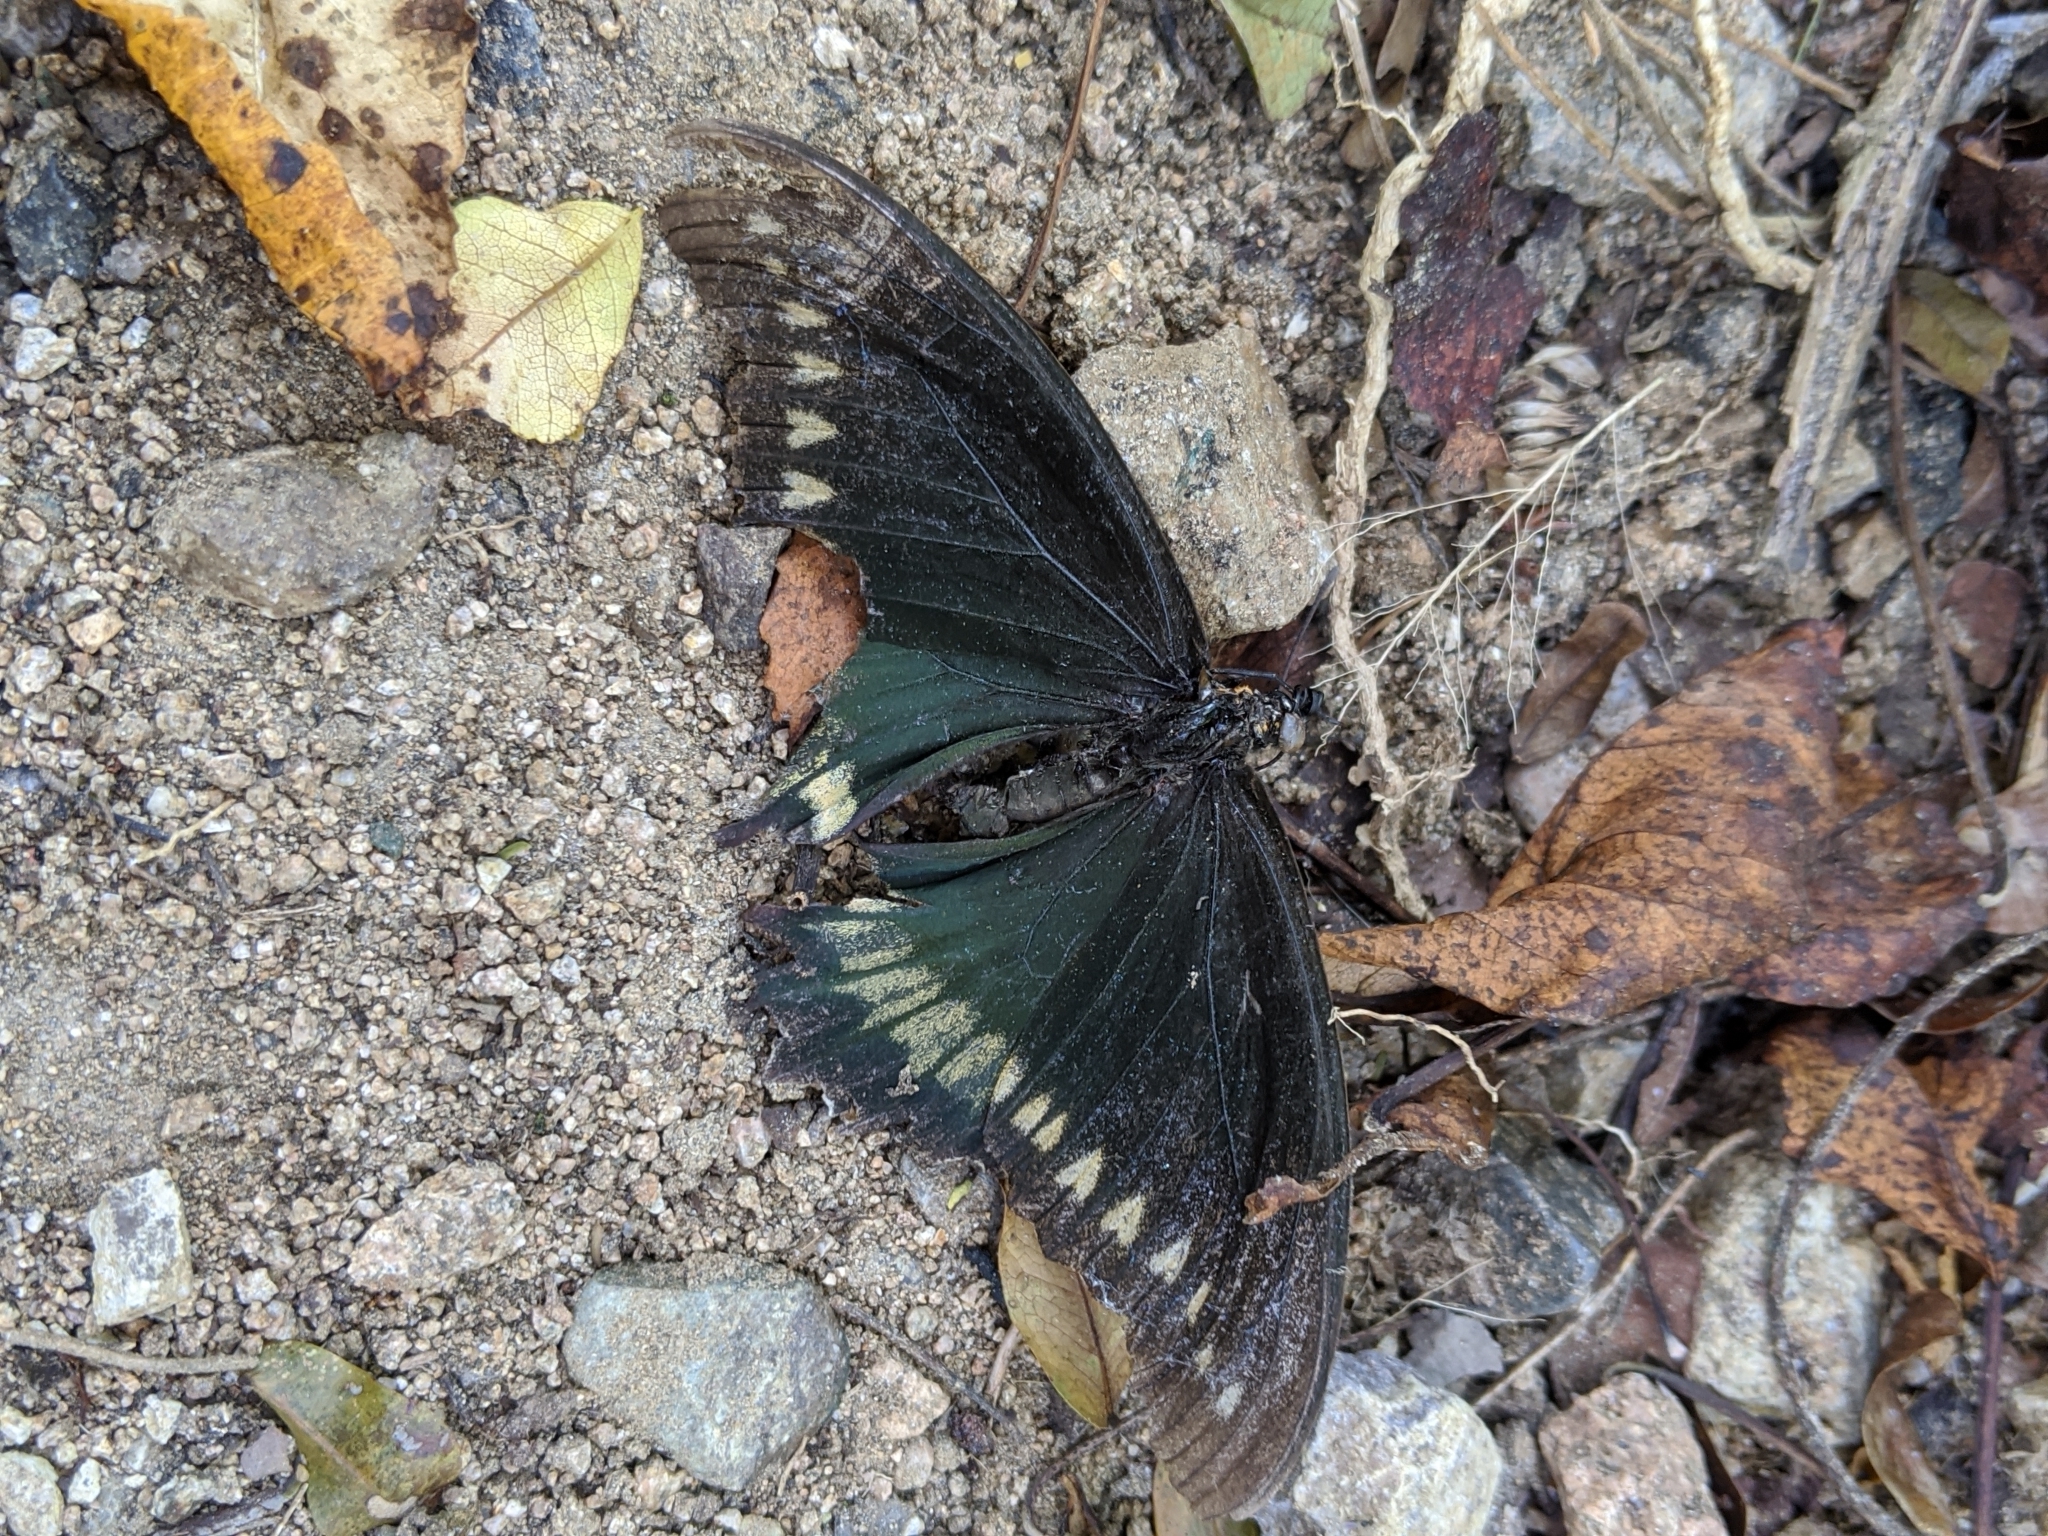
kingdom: Animalia
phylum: Arthropoda
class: Insecta
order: Lepidoptera
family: Papilionidae
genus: Battus
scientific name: Battus polydamas
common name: Polydamas swallowtail
